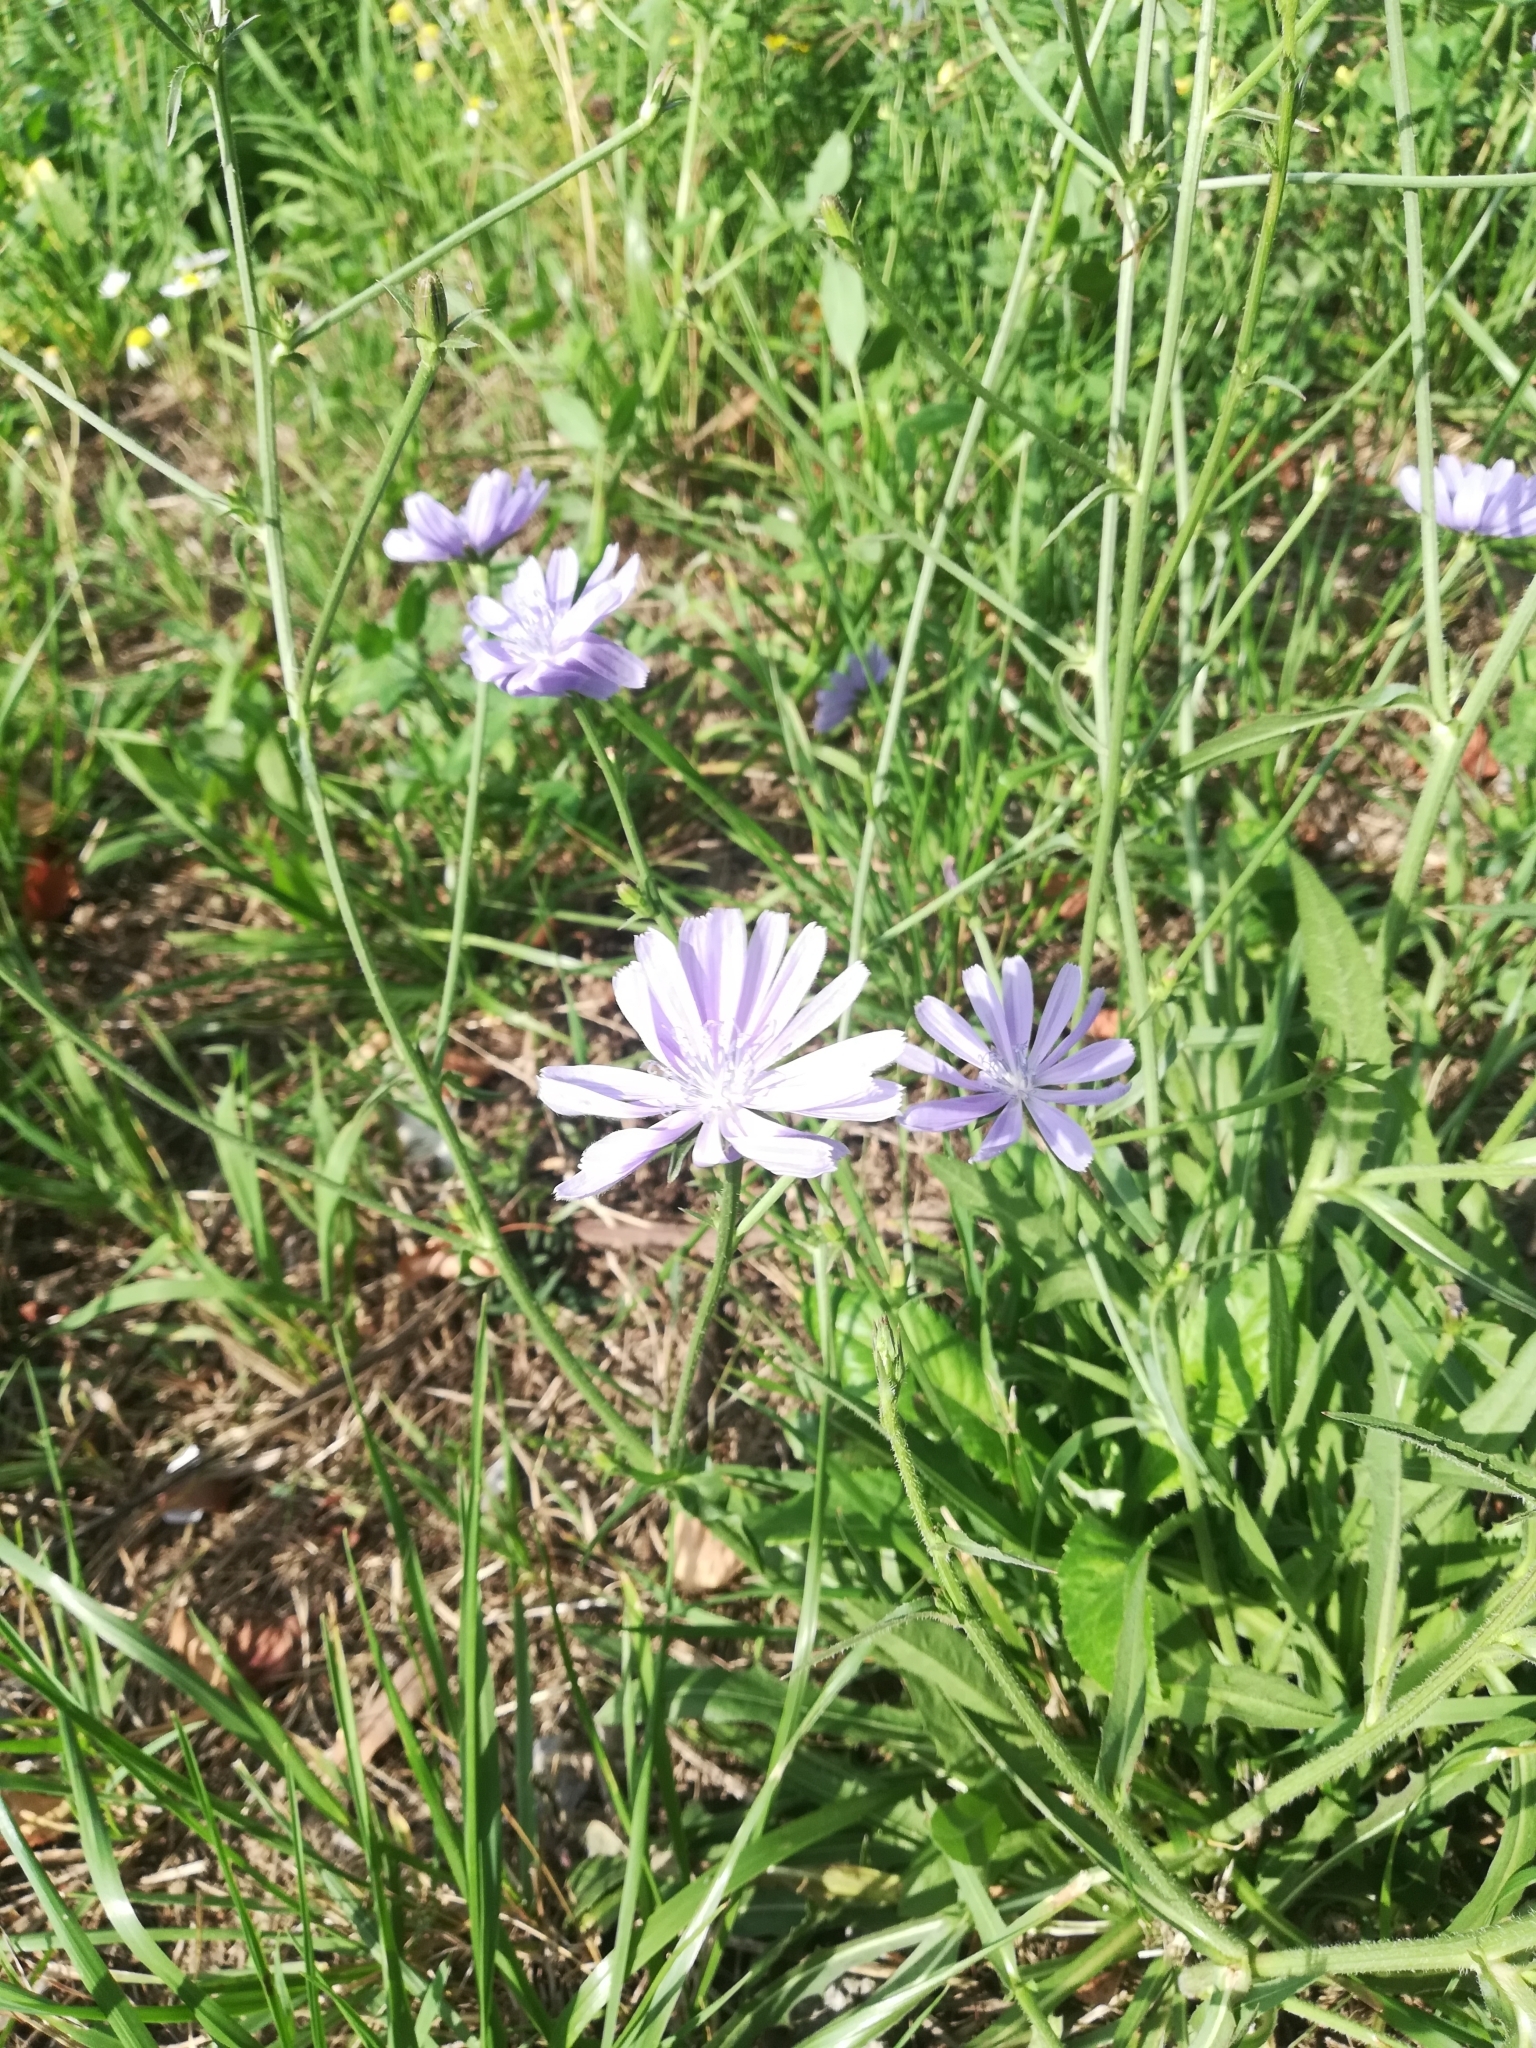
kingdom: Plantae
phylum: Tracheophyta
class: Magnoliopsida
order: Asterales
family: Asteraceae
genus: Cichorium
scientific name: Cichorium intybus
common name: Chicory
